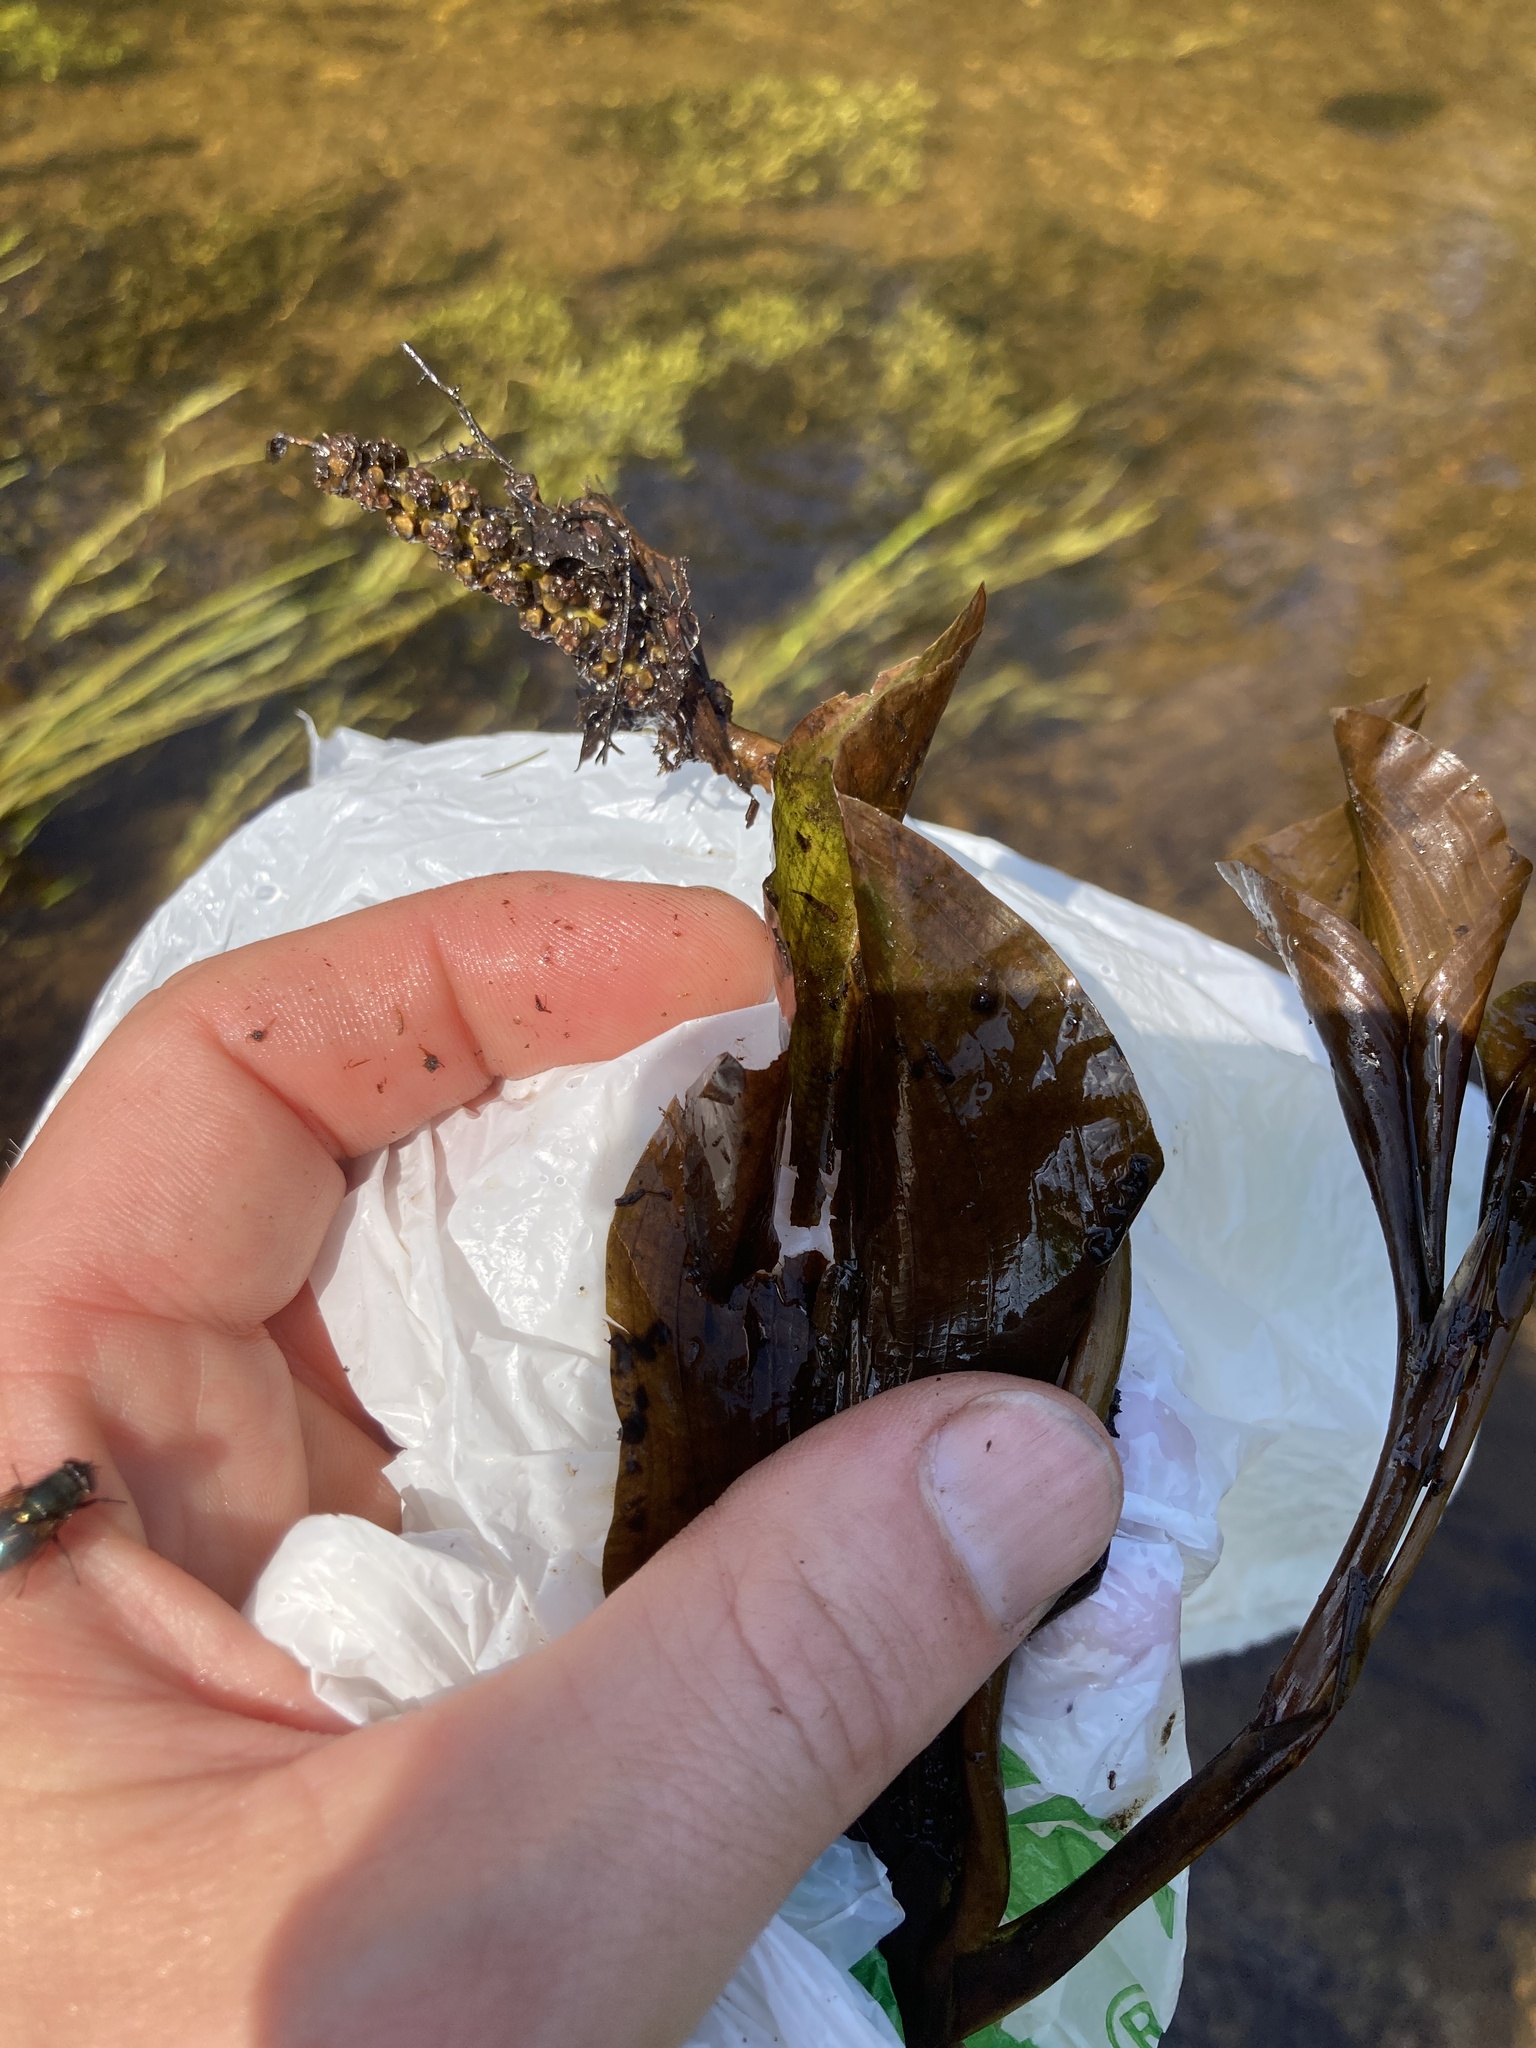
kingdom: Plantae
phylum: Tracheophyta
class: Liliopsida
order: Alismatales
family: Potamogetonaceae
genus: Potamogeton
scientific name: Potamogeton amplifolius
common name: Broad-leaved pondweed
